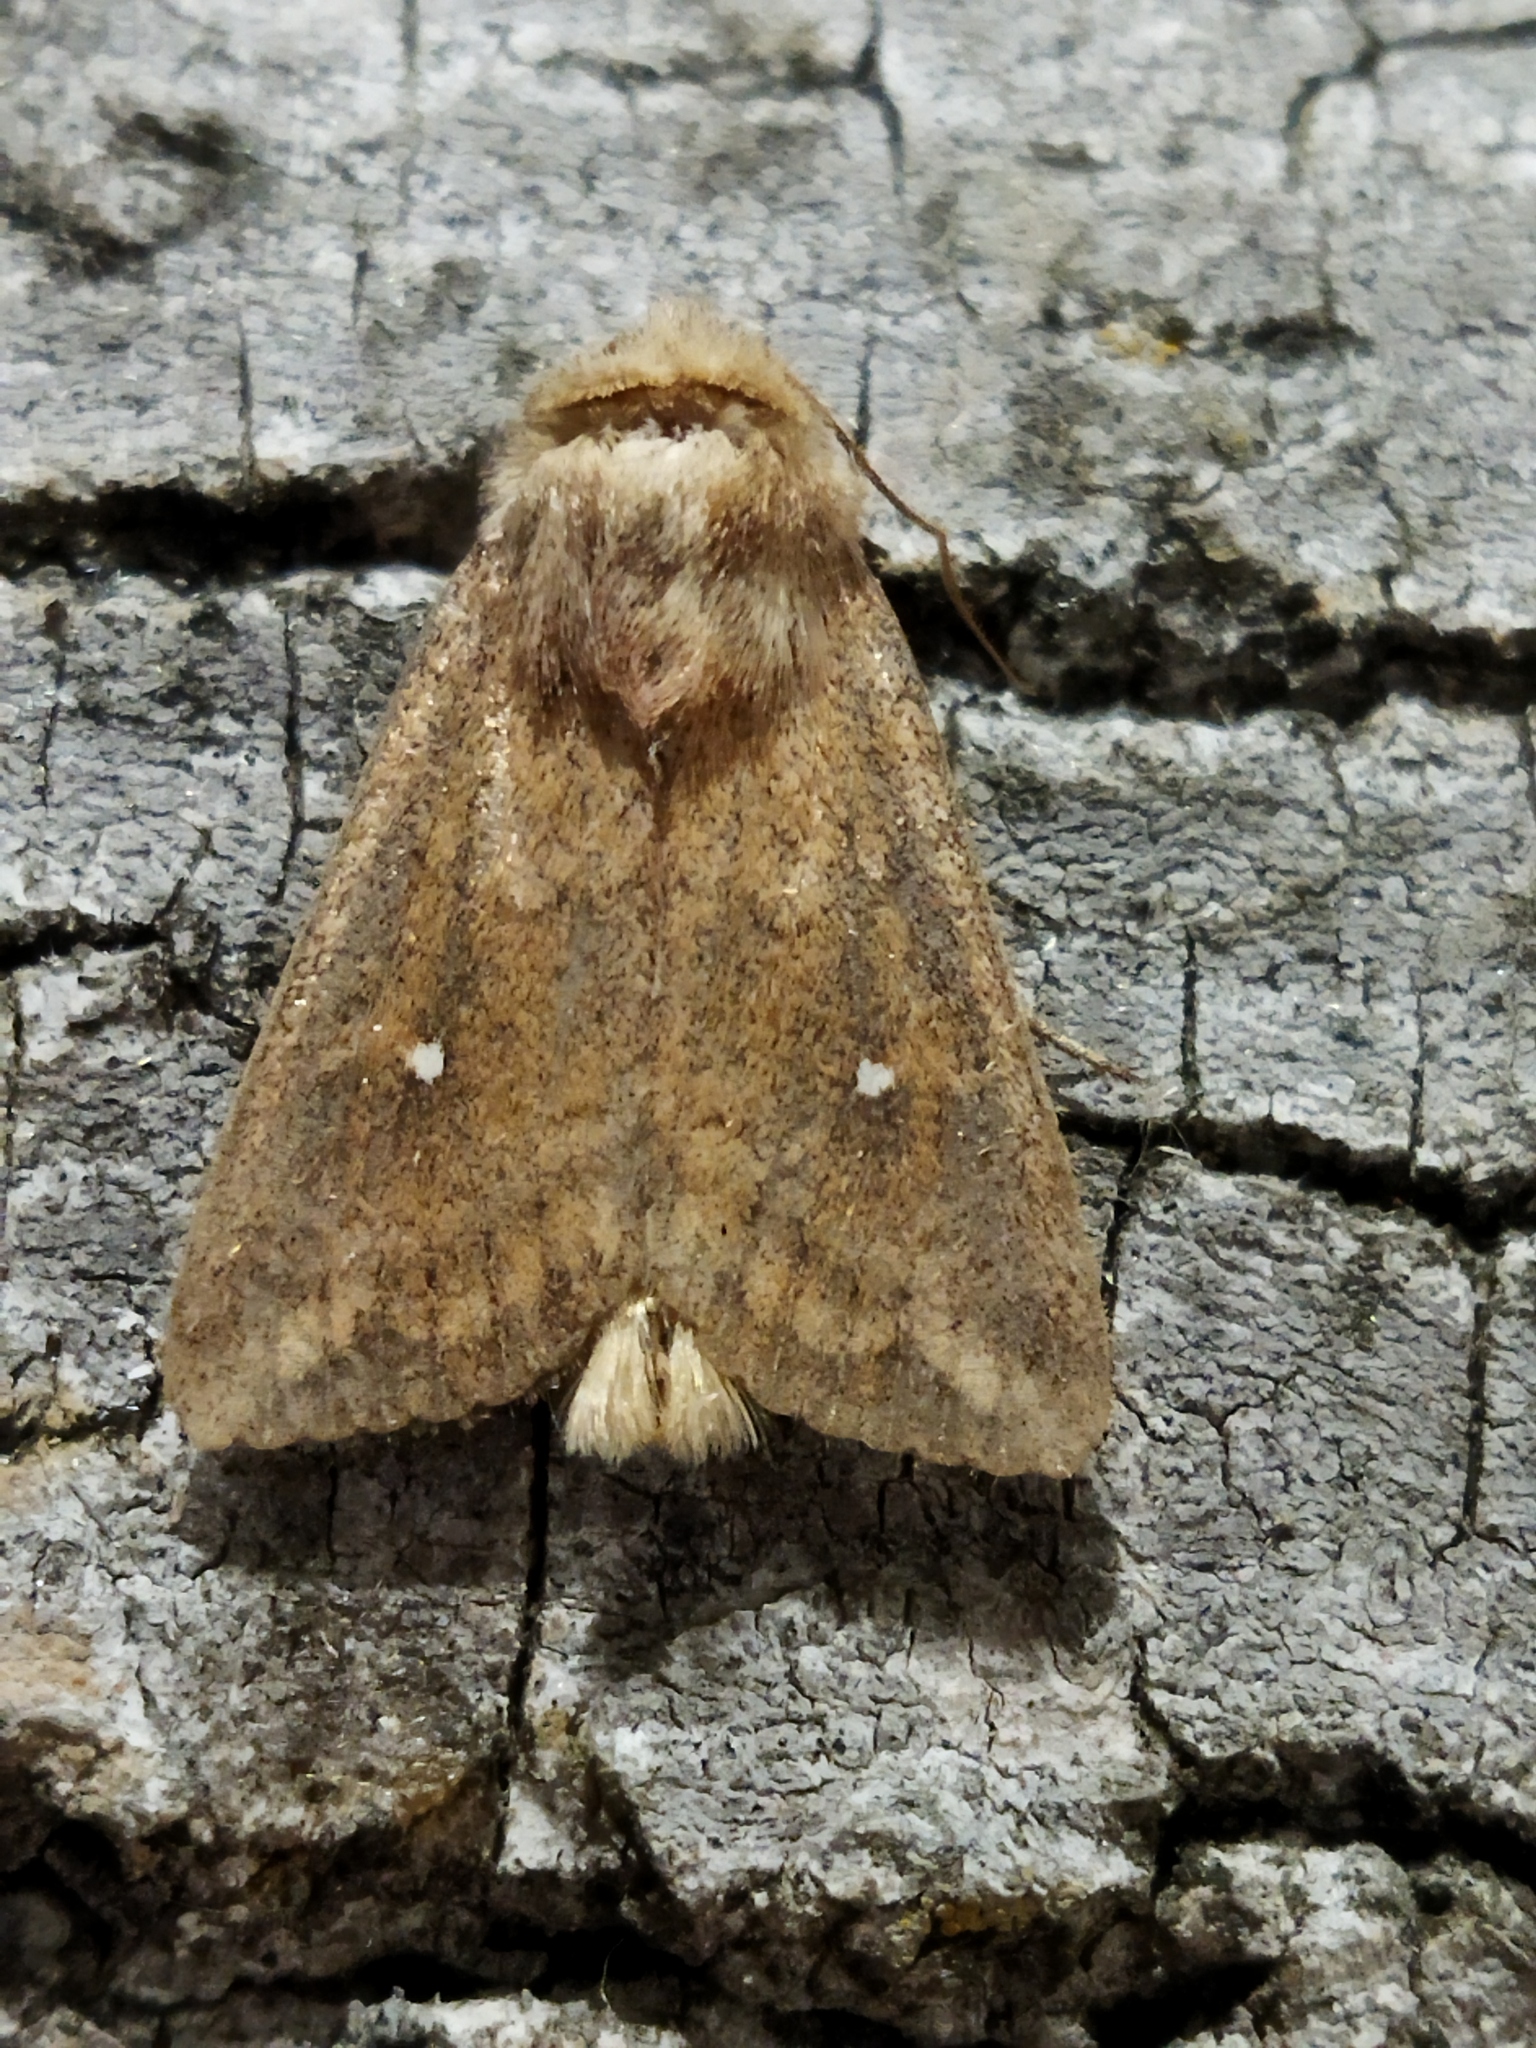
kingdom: Animalia
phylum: Arthropoda
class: Insecta
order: Lepidoptera
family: Noctuidae
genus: Mythimna
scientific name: Mythimna albipuncta
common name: White-point
